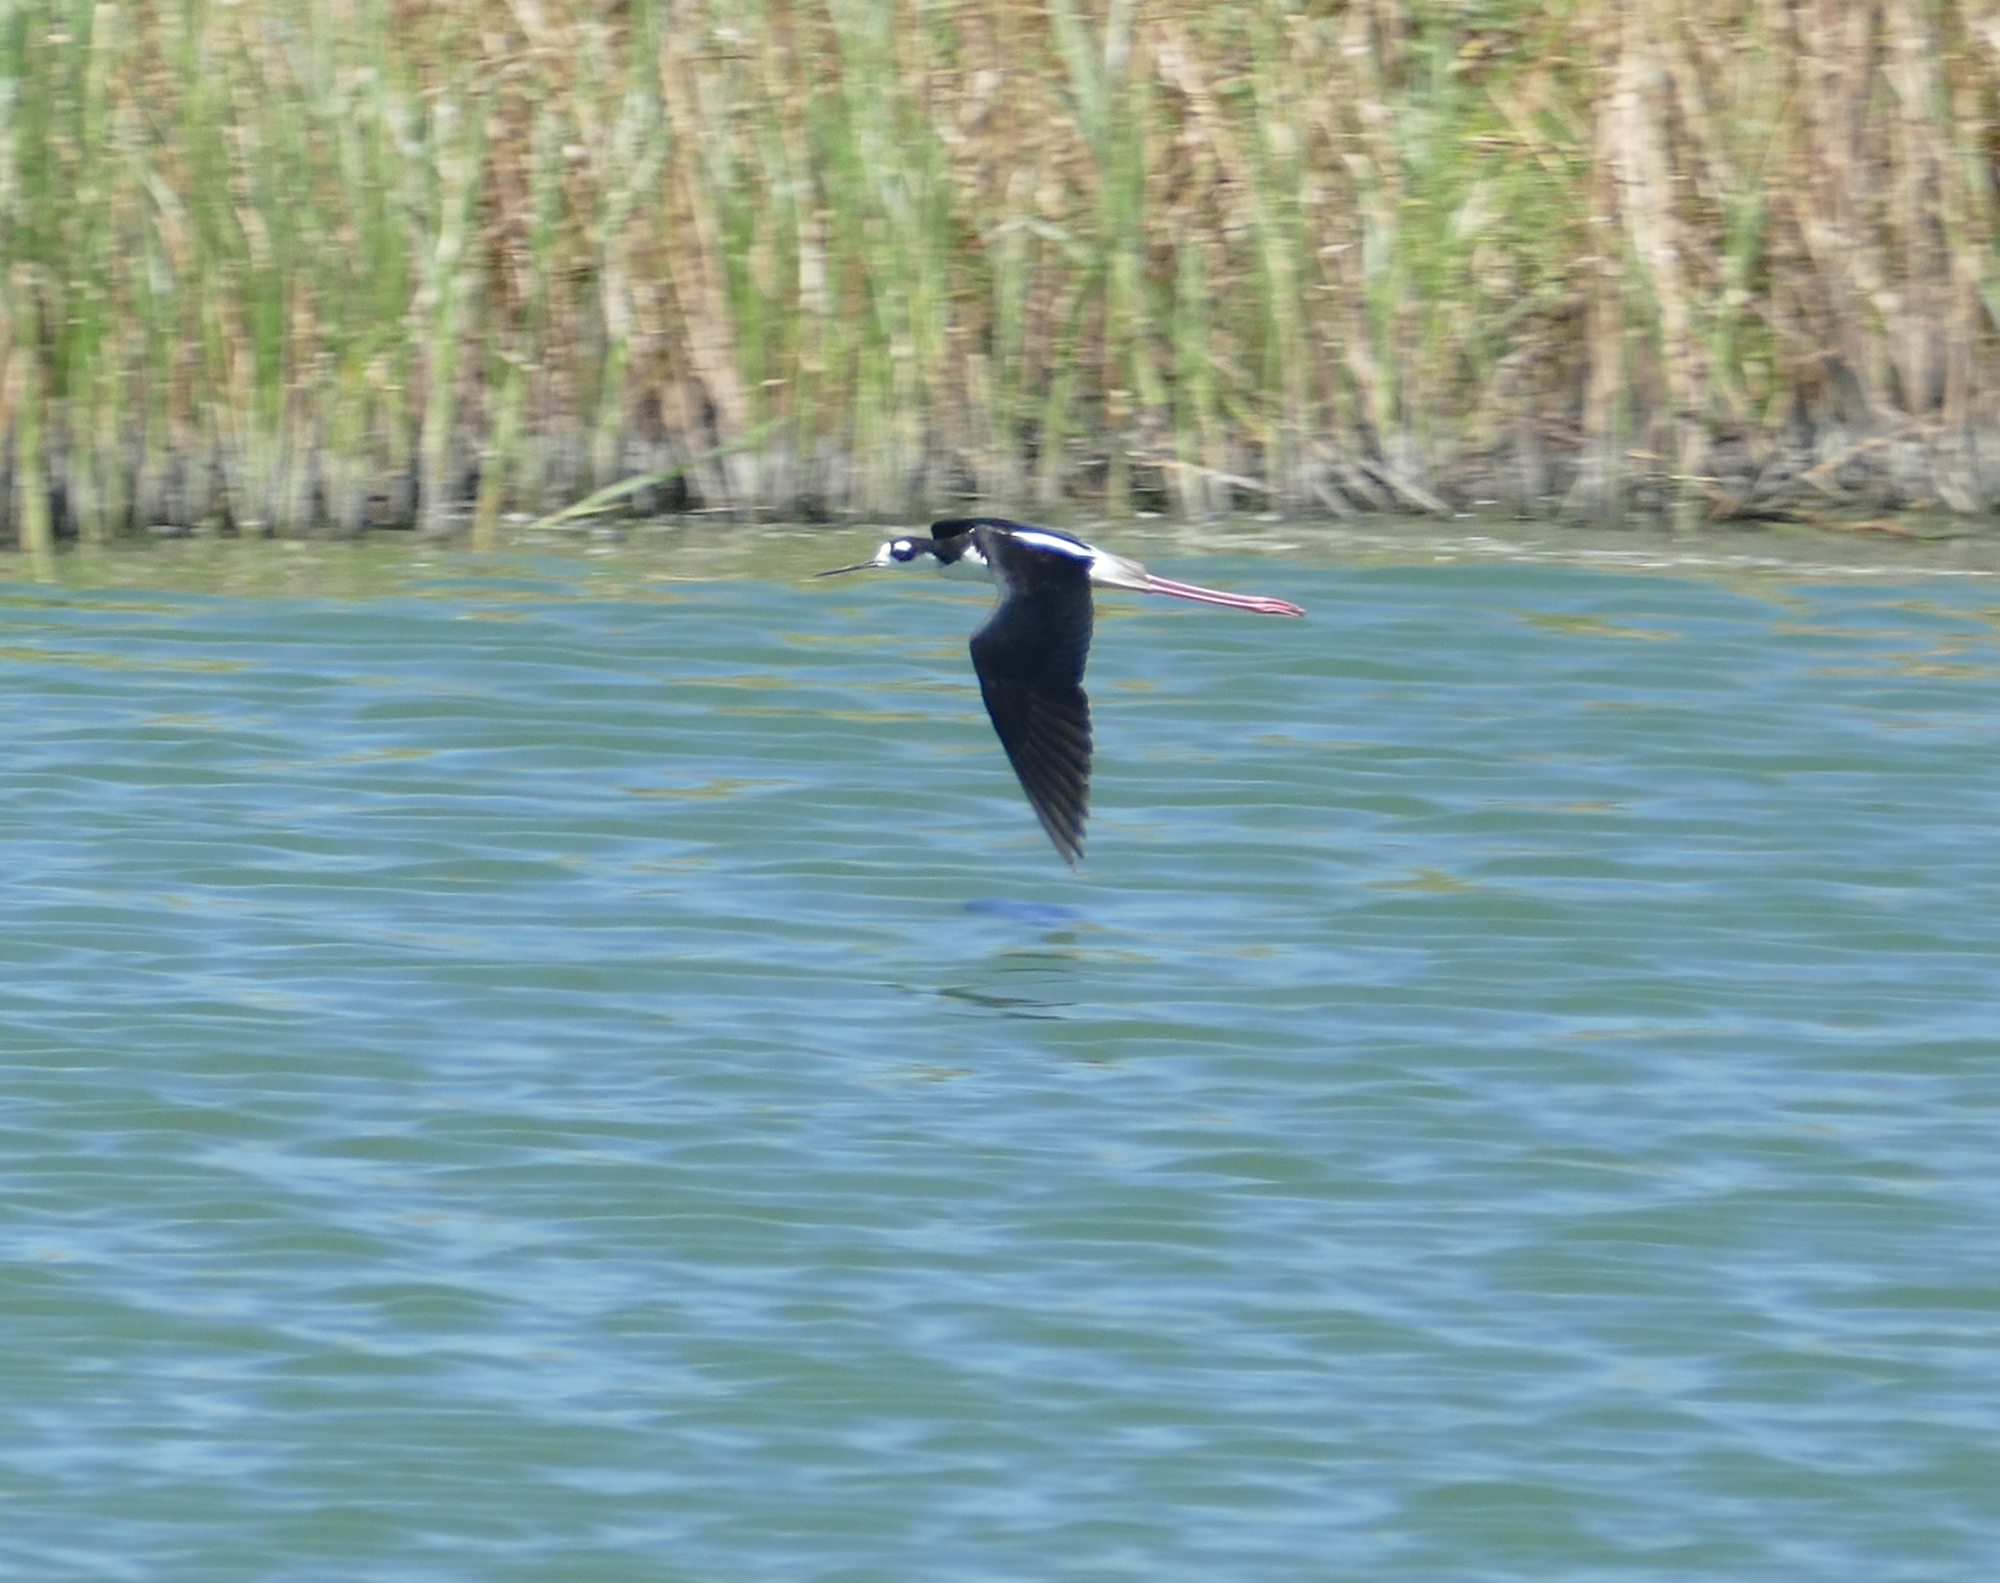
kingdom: Animalia
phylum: Chordata
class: Aves
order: Charadriiformes
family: Recurvirostridae
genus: Himantopus
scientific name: Himantopus mexicanus
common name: Black-necked stilt
